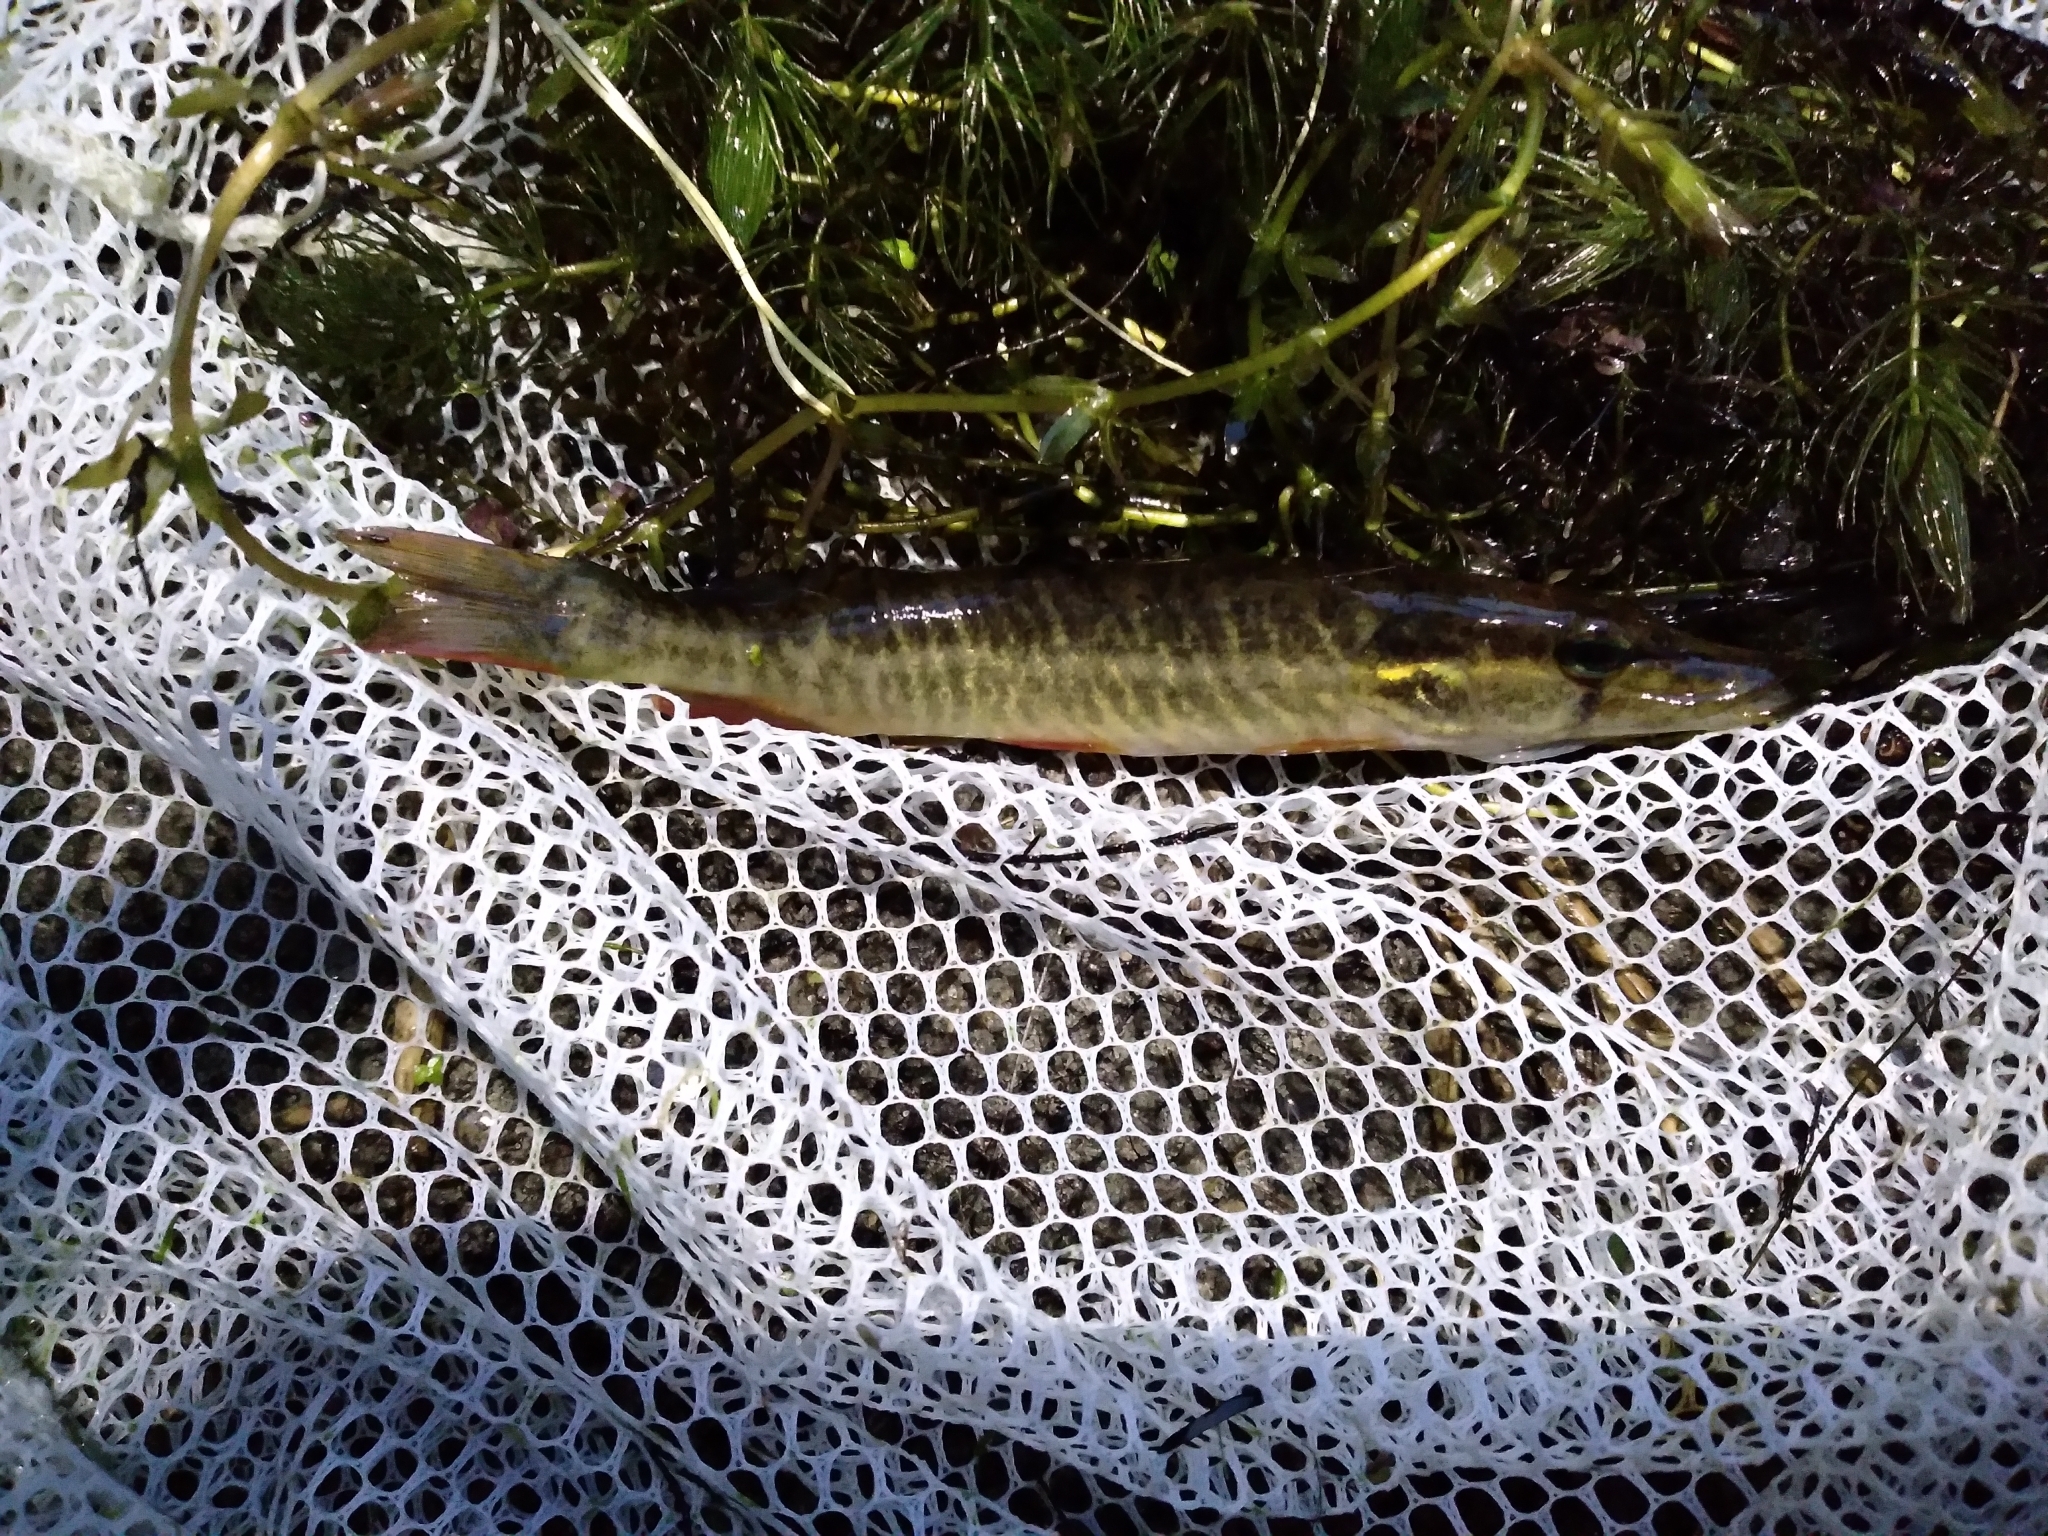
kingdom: Animalia
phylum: Chordata
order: Esociformes
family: Esocidae
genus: Esox
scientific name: Esox americanus
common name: Redfin pickerel
